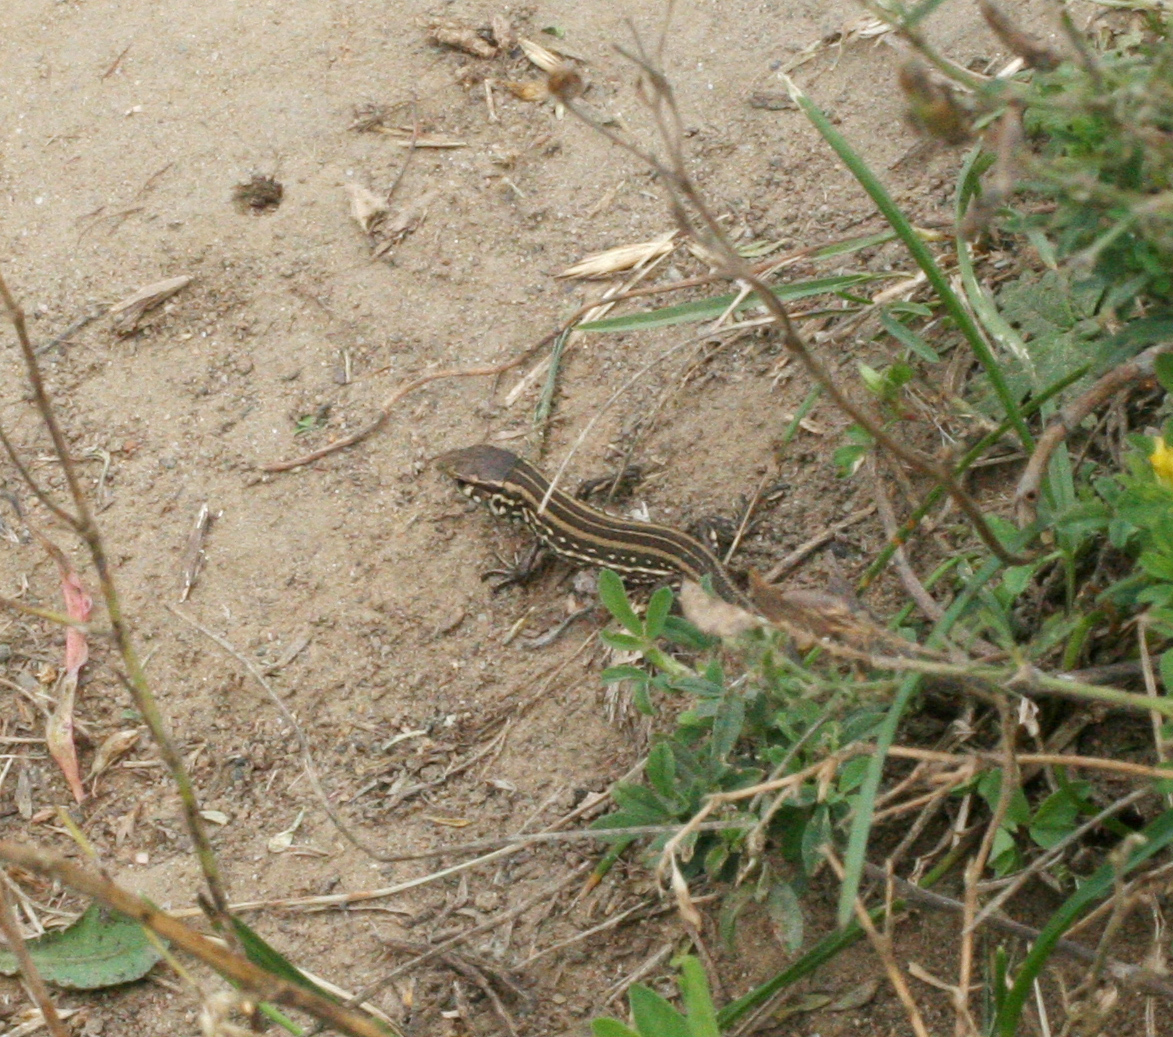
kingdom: Animalia
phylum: Chordata
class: Squamata
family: Lacertidae
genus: Lacerta
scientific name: Lacerta agilis
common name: Sand lizard
